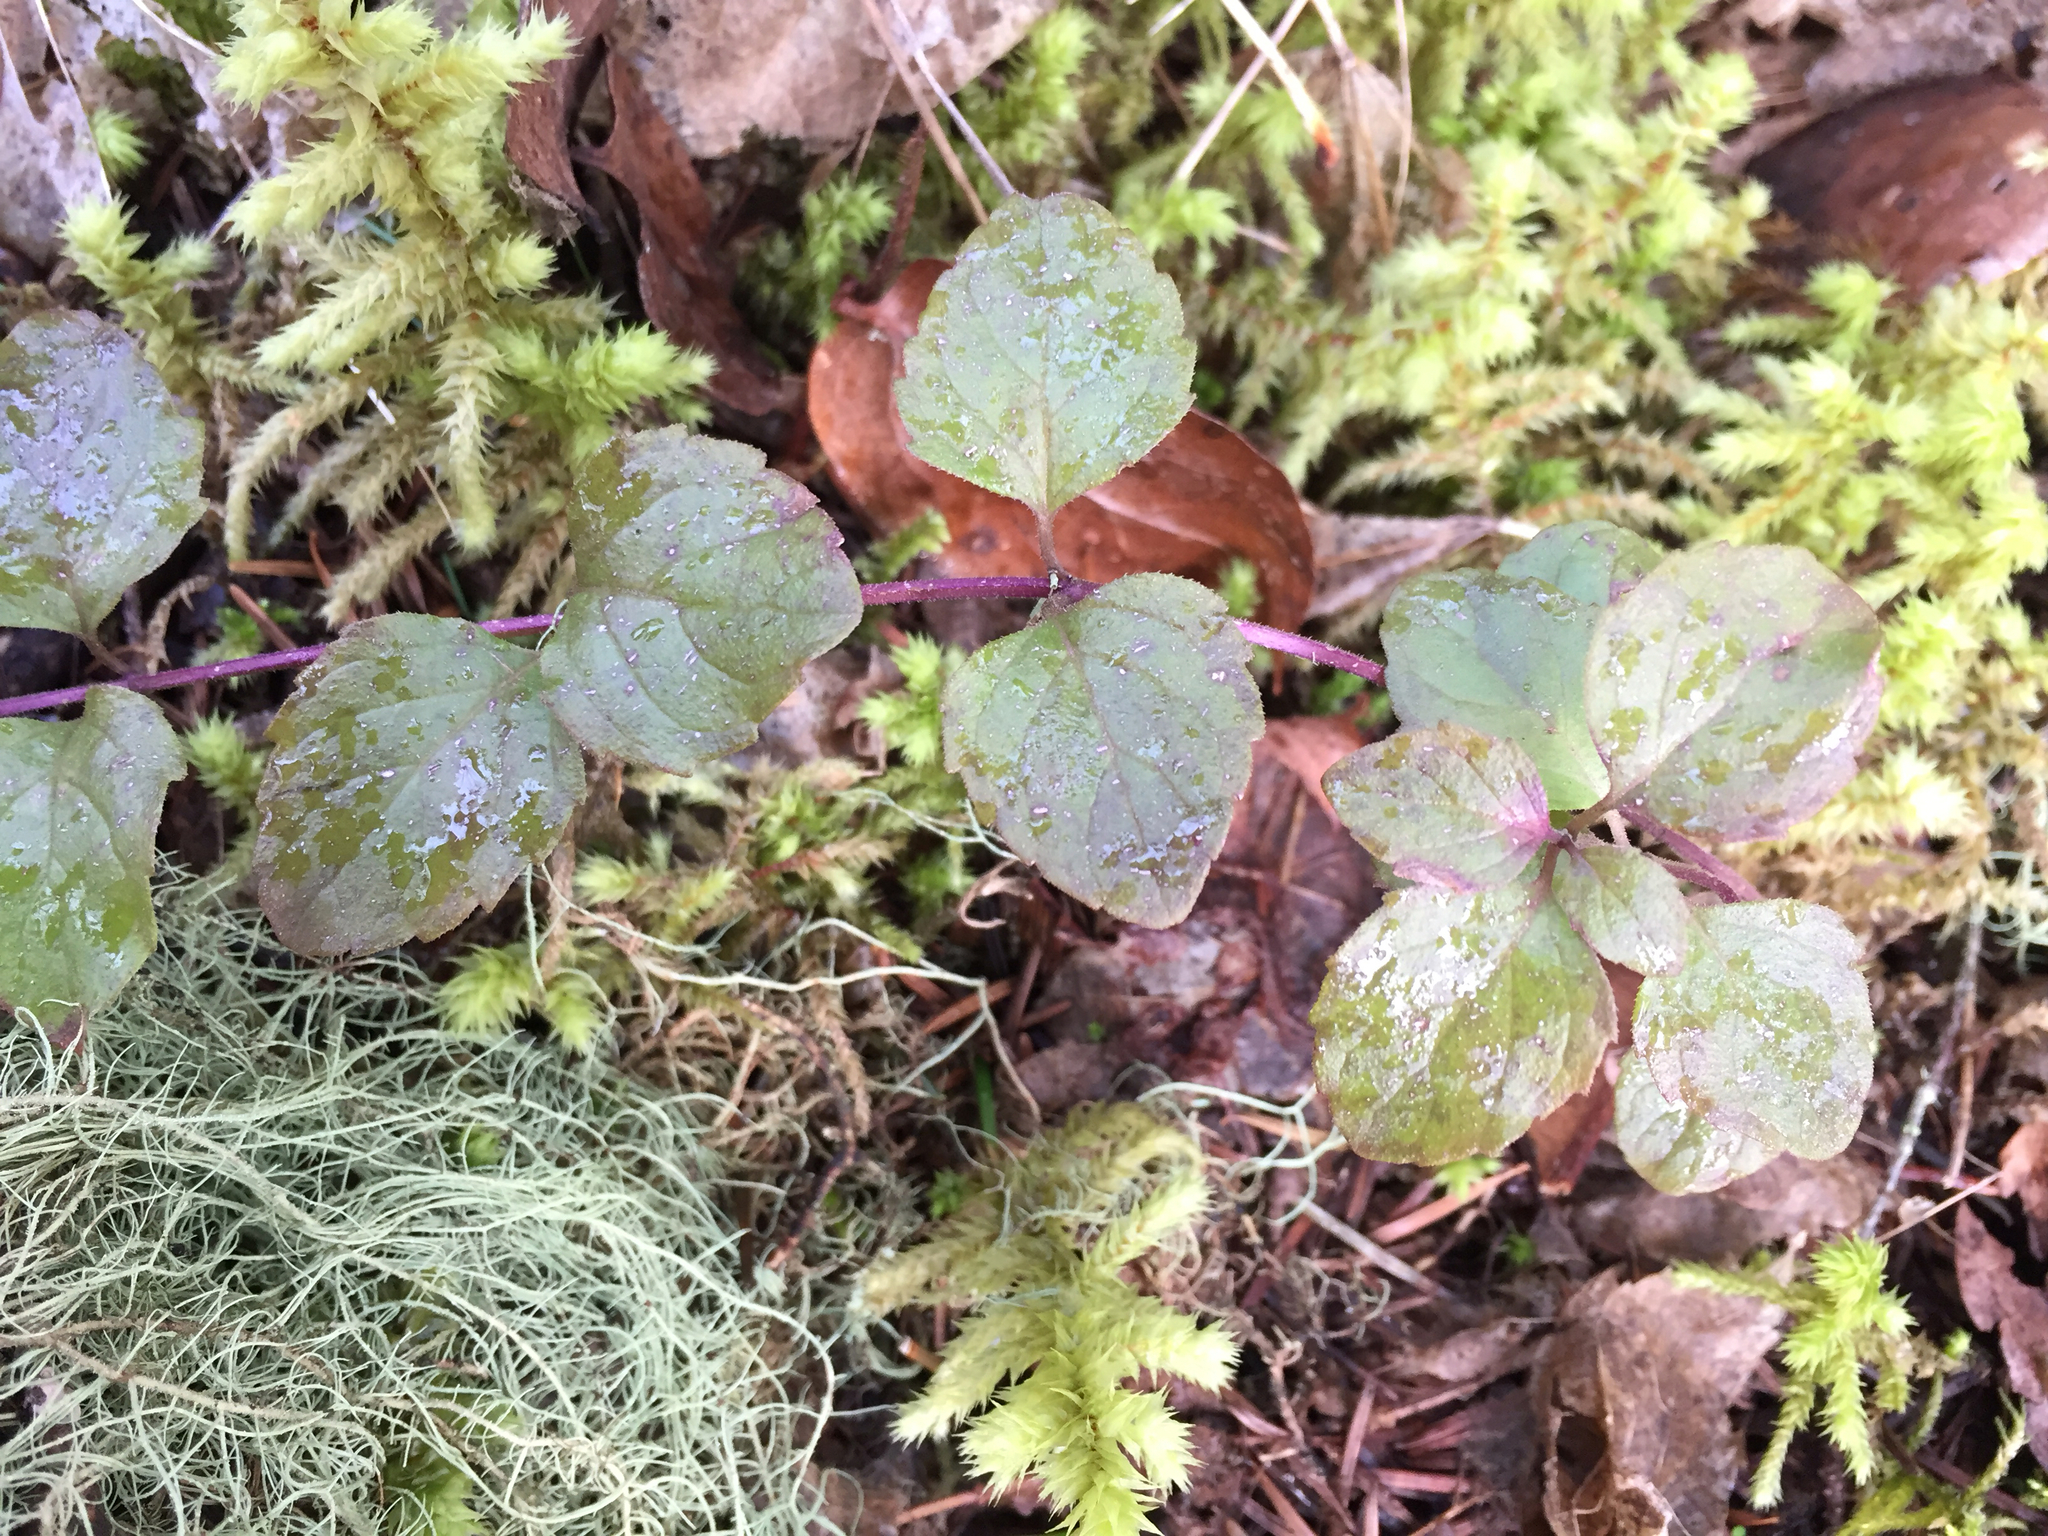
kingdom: Plantae
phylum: Tracheophyta
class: Magnoliopsida
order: Lamiales
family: Lamiaceae
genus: Micromeria
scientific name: Micromeria douglasii
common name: Yerba buena
